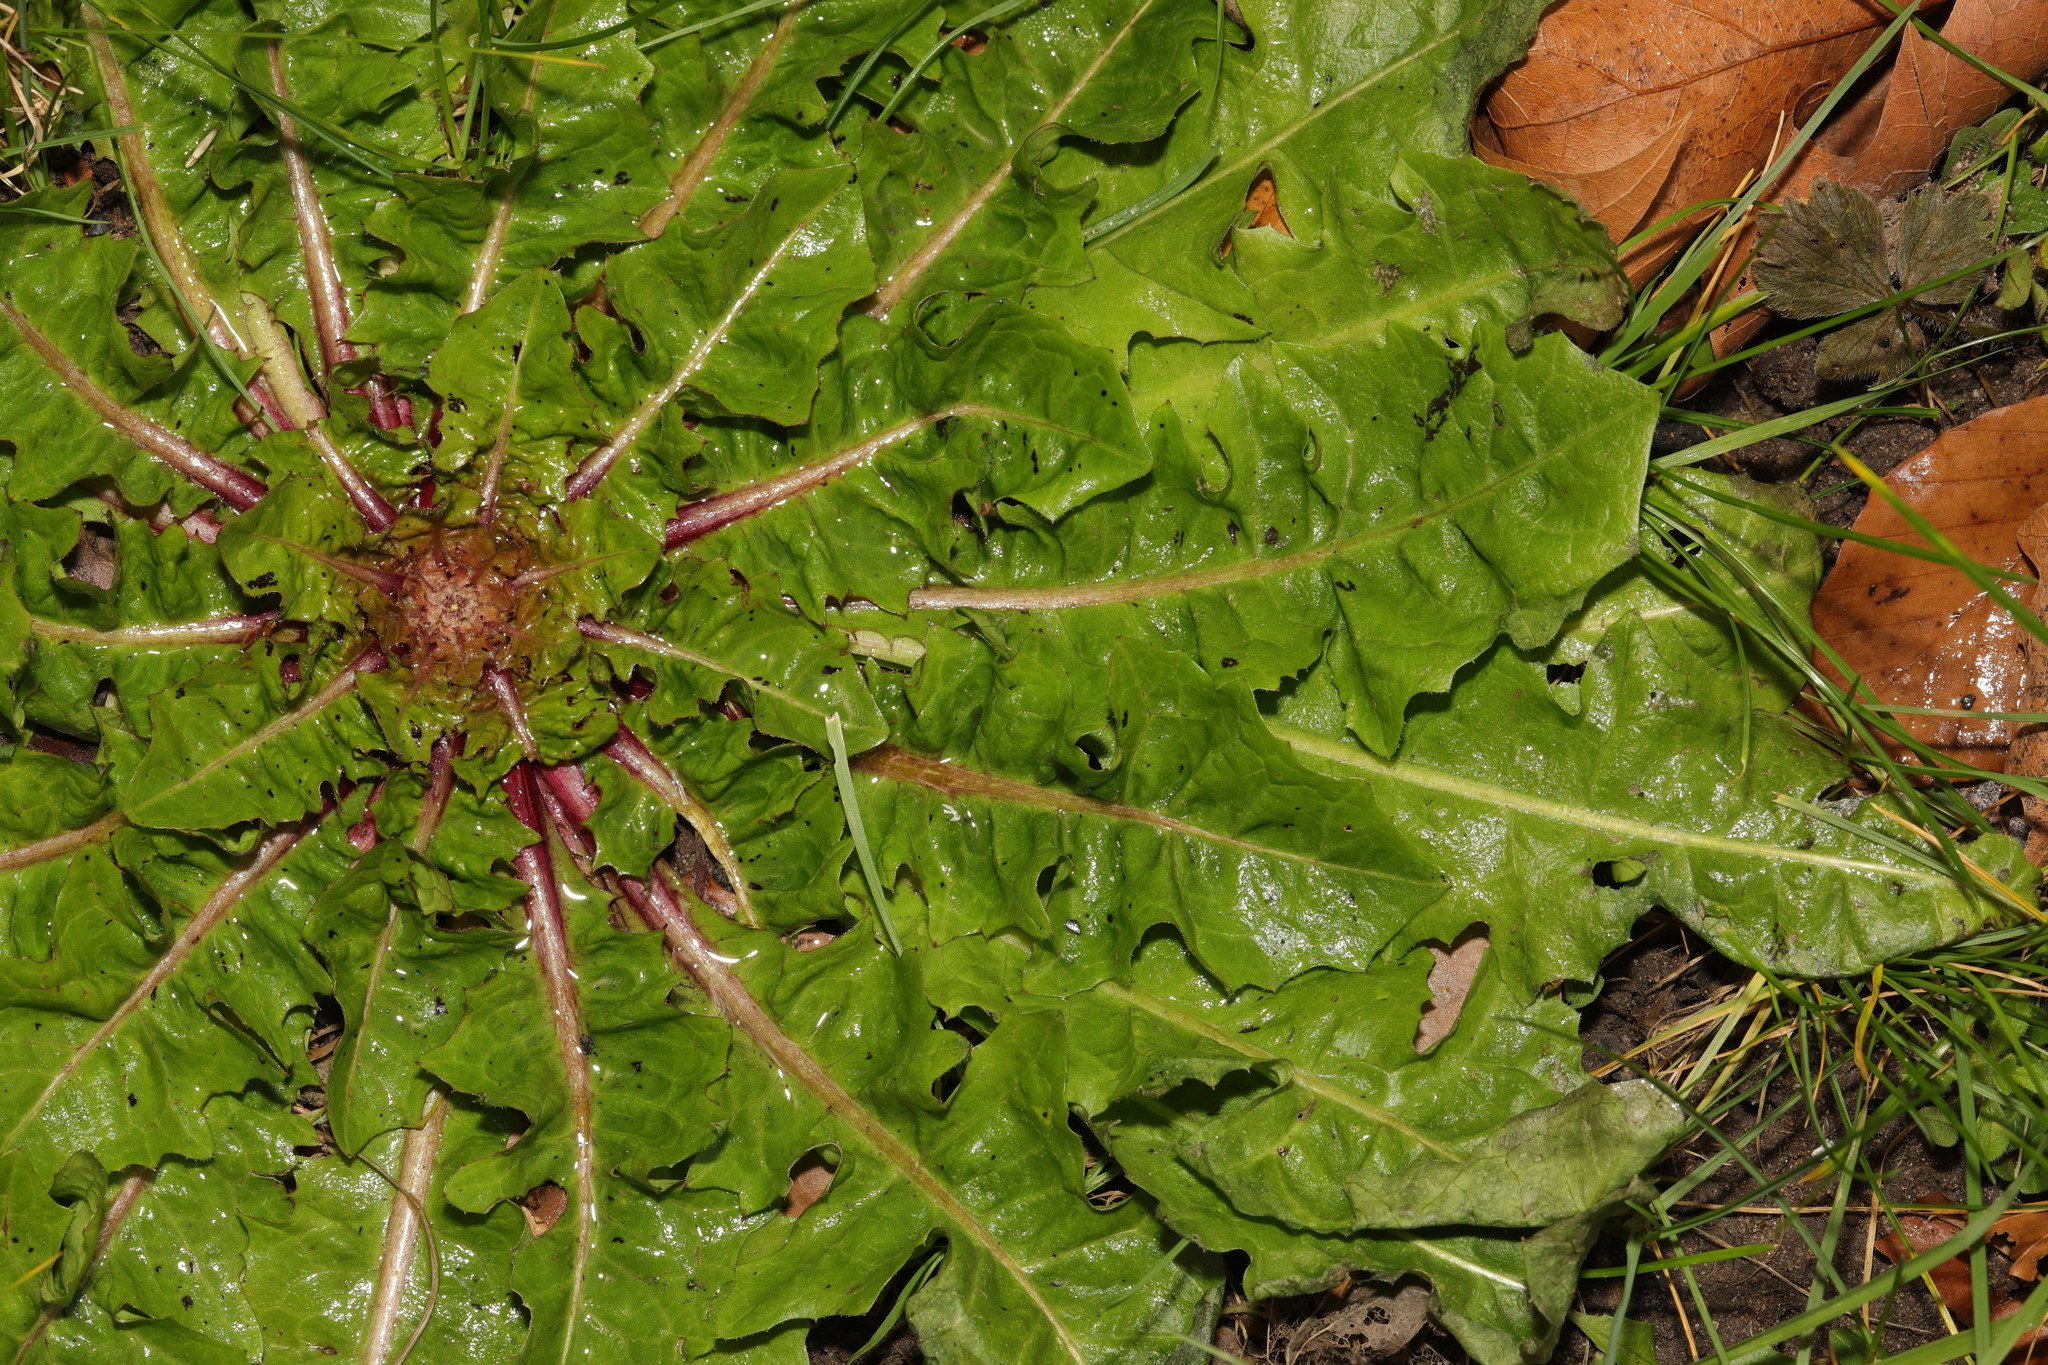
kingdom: Plantae
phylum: Tracheophyta
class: Magnoliopsida
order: Asterales
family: Asteraceae
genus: Taraxacum
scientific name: Taraxacum officinale
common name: Common dandelion
